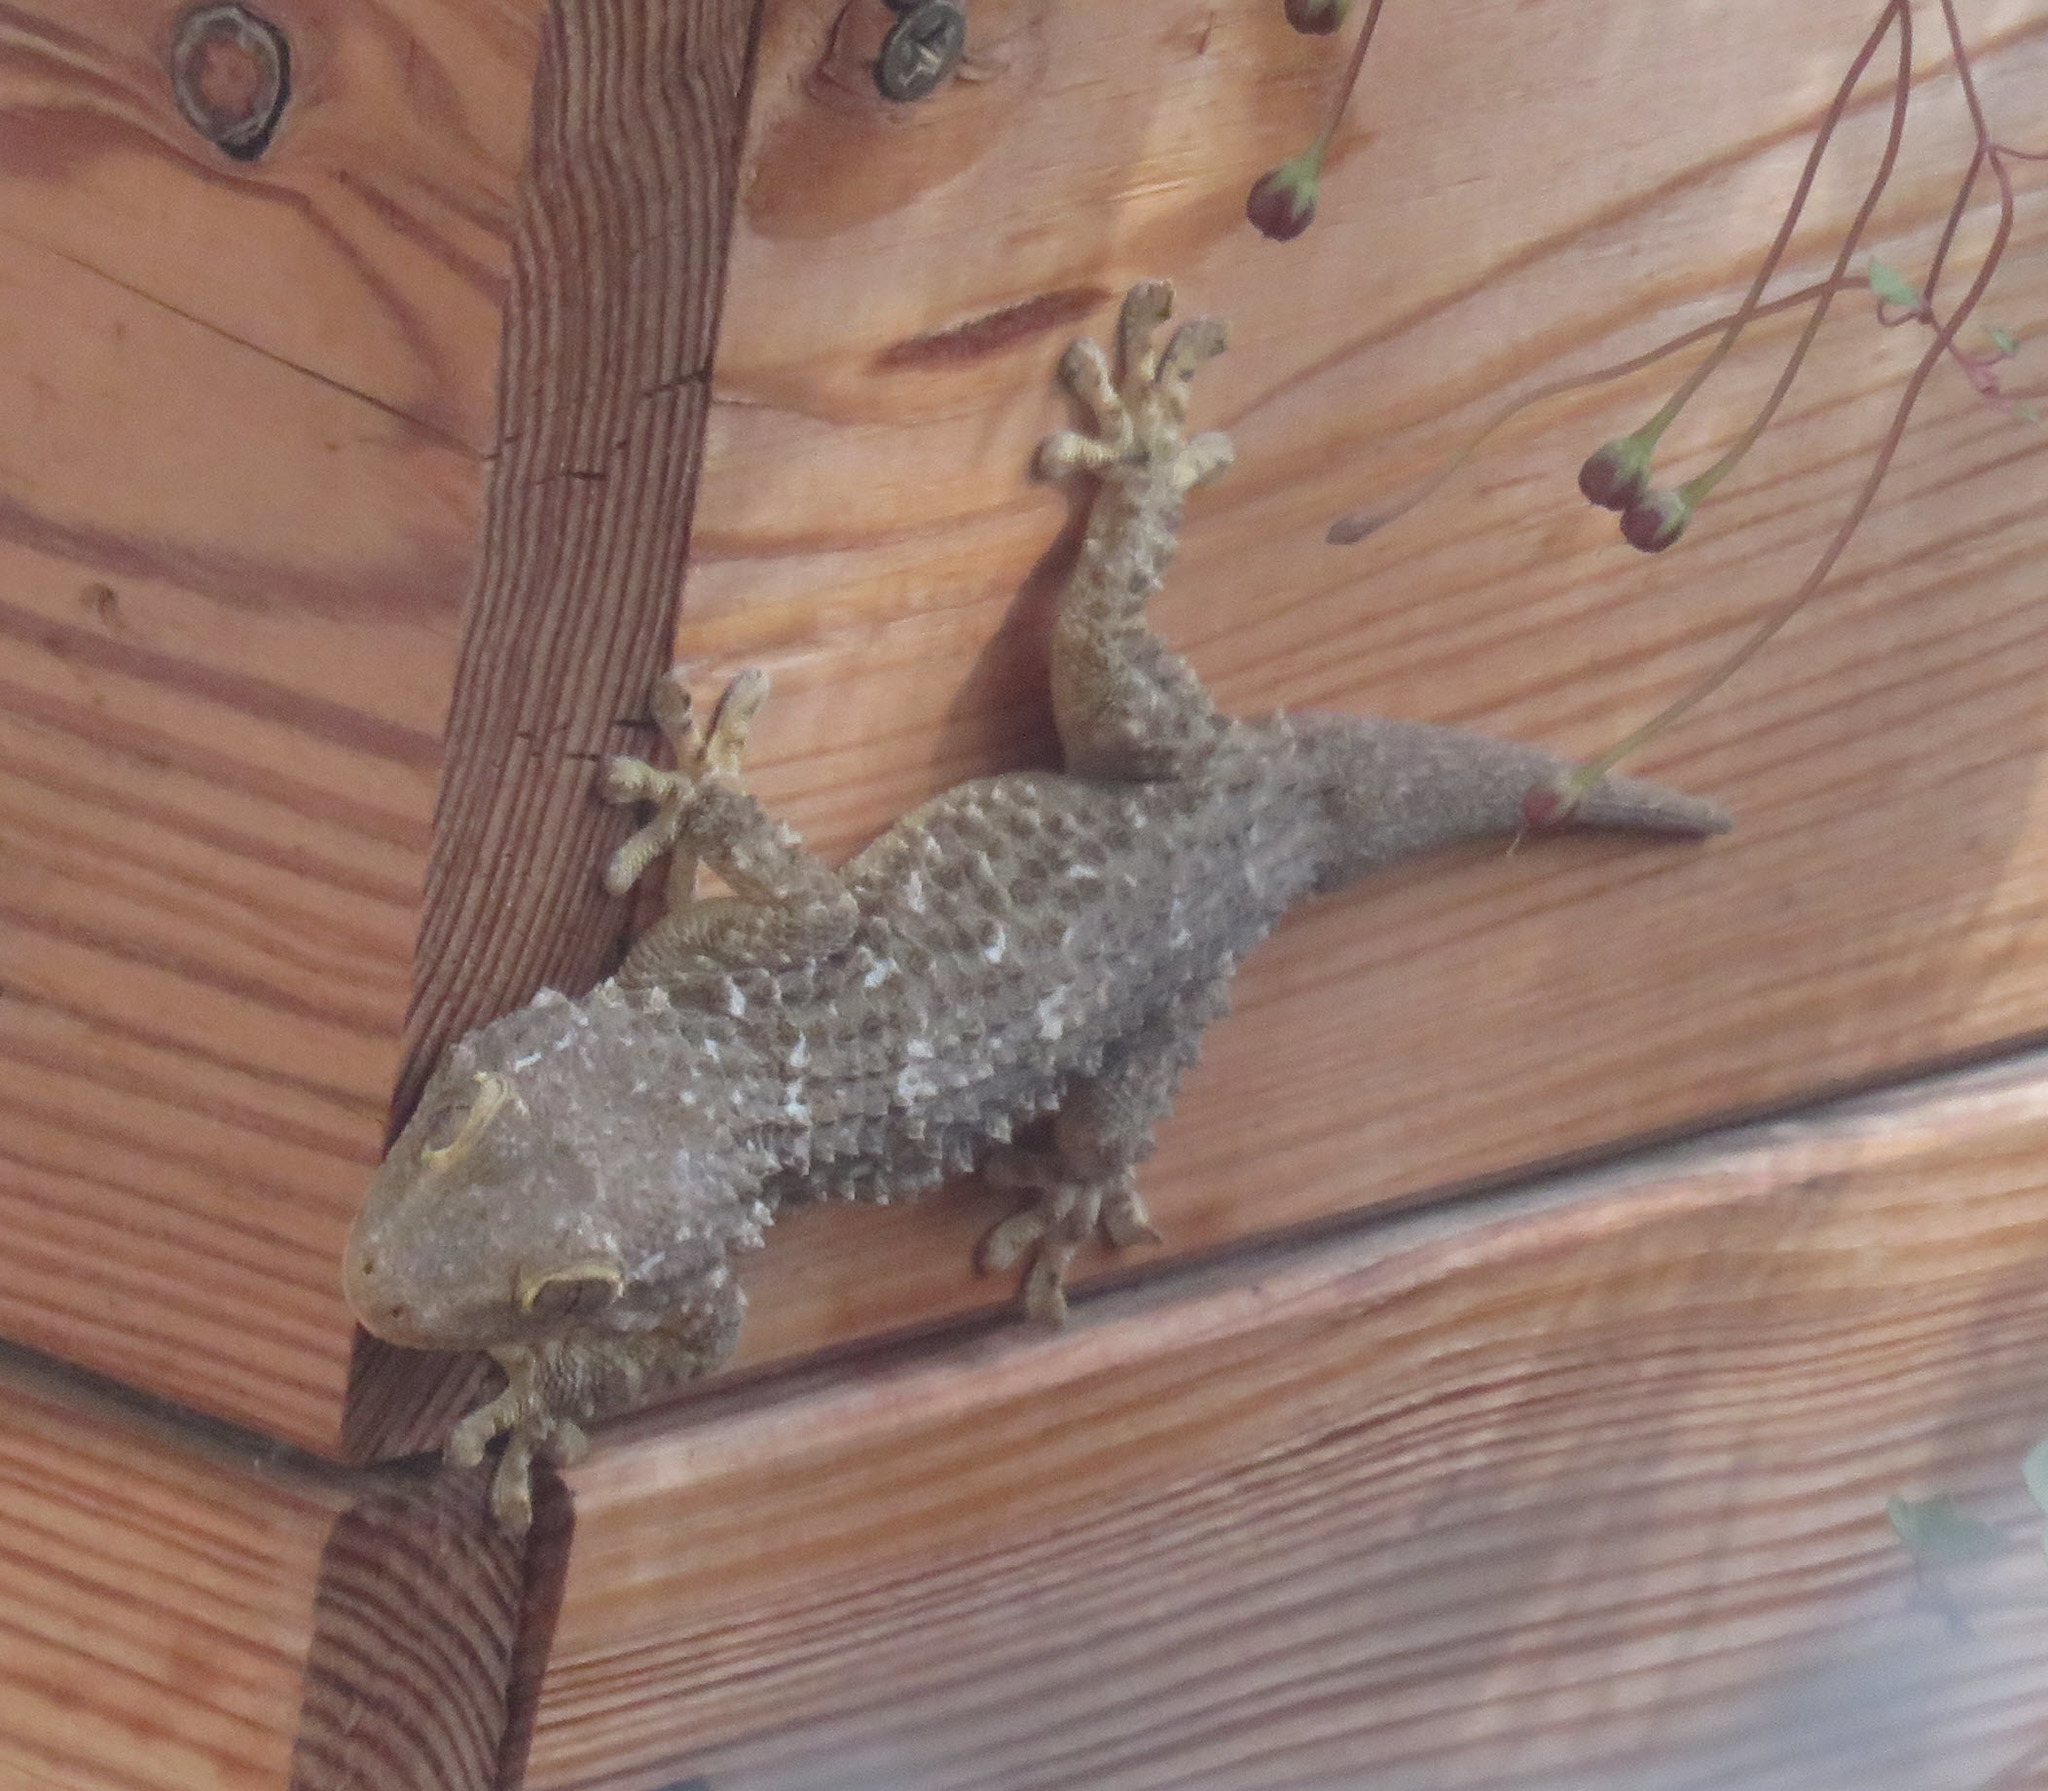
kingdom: Animalia
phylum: Chordata
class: Squamata
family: Phyllodactylidae
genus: Tarentola
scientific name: Tarentola mauritanica
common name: Moorish gecko
